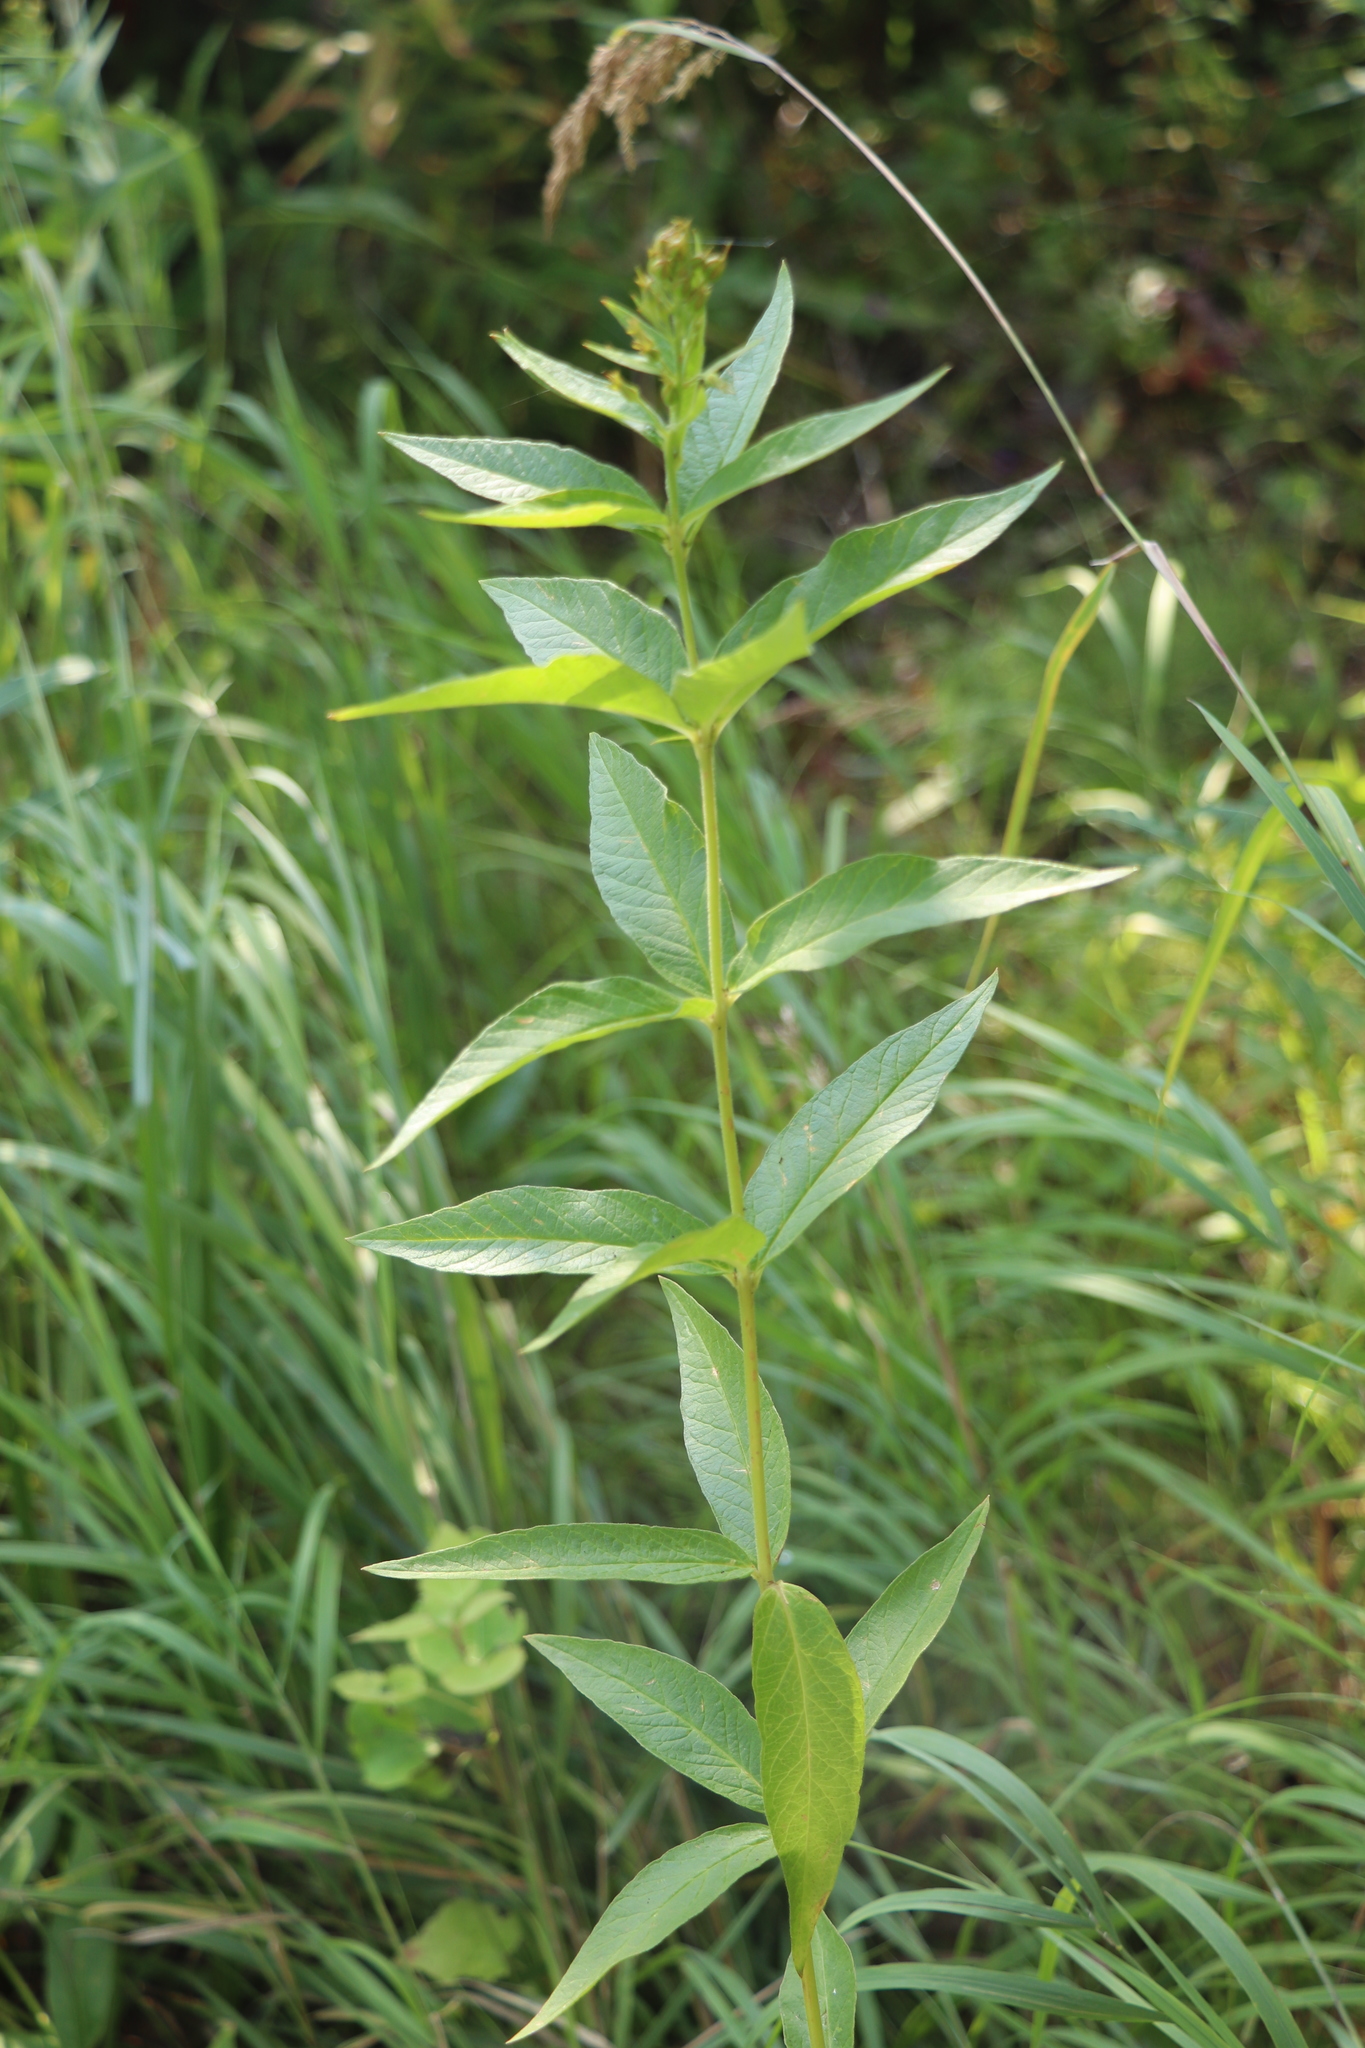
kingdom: Plantae
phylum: Tracheophyta
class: Magnoliopsida
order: Ericales
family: Primulaceae
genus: Lysimachia
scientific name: Lysimachia vulgaris
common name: Yellow loosestrife
